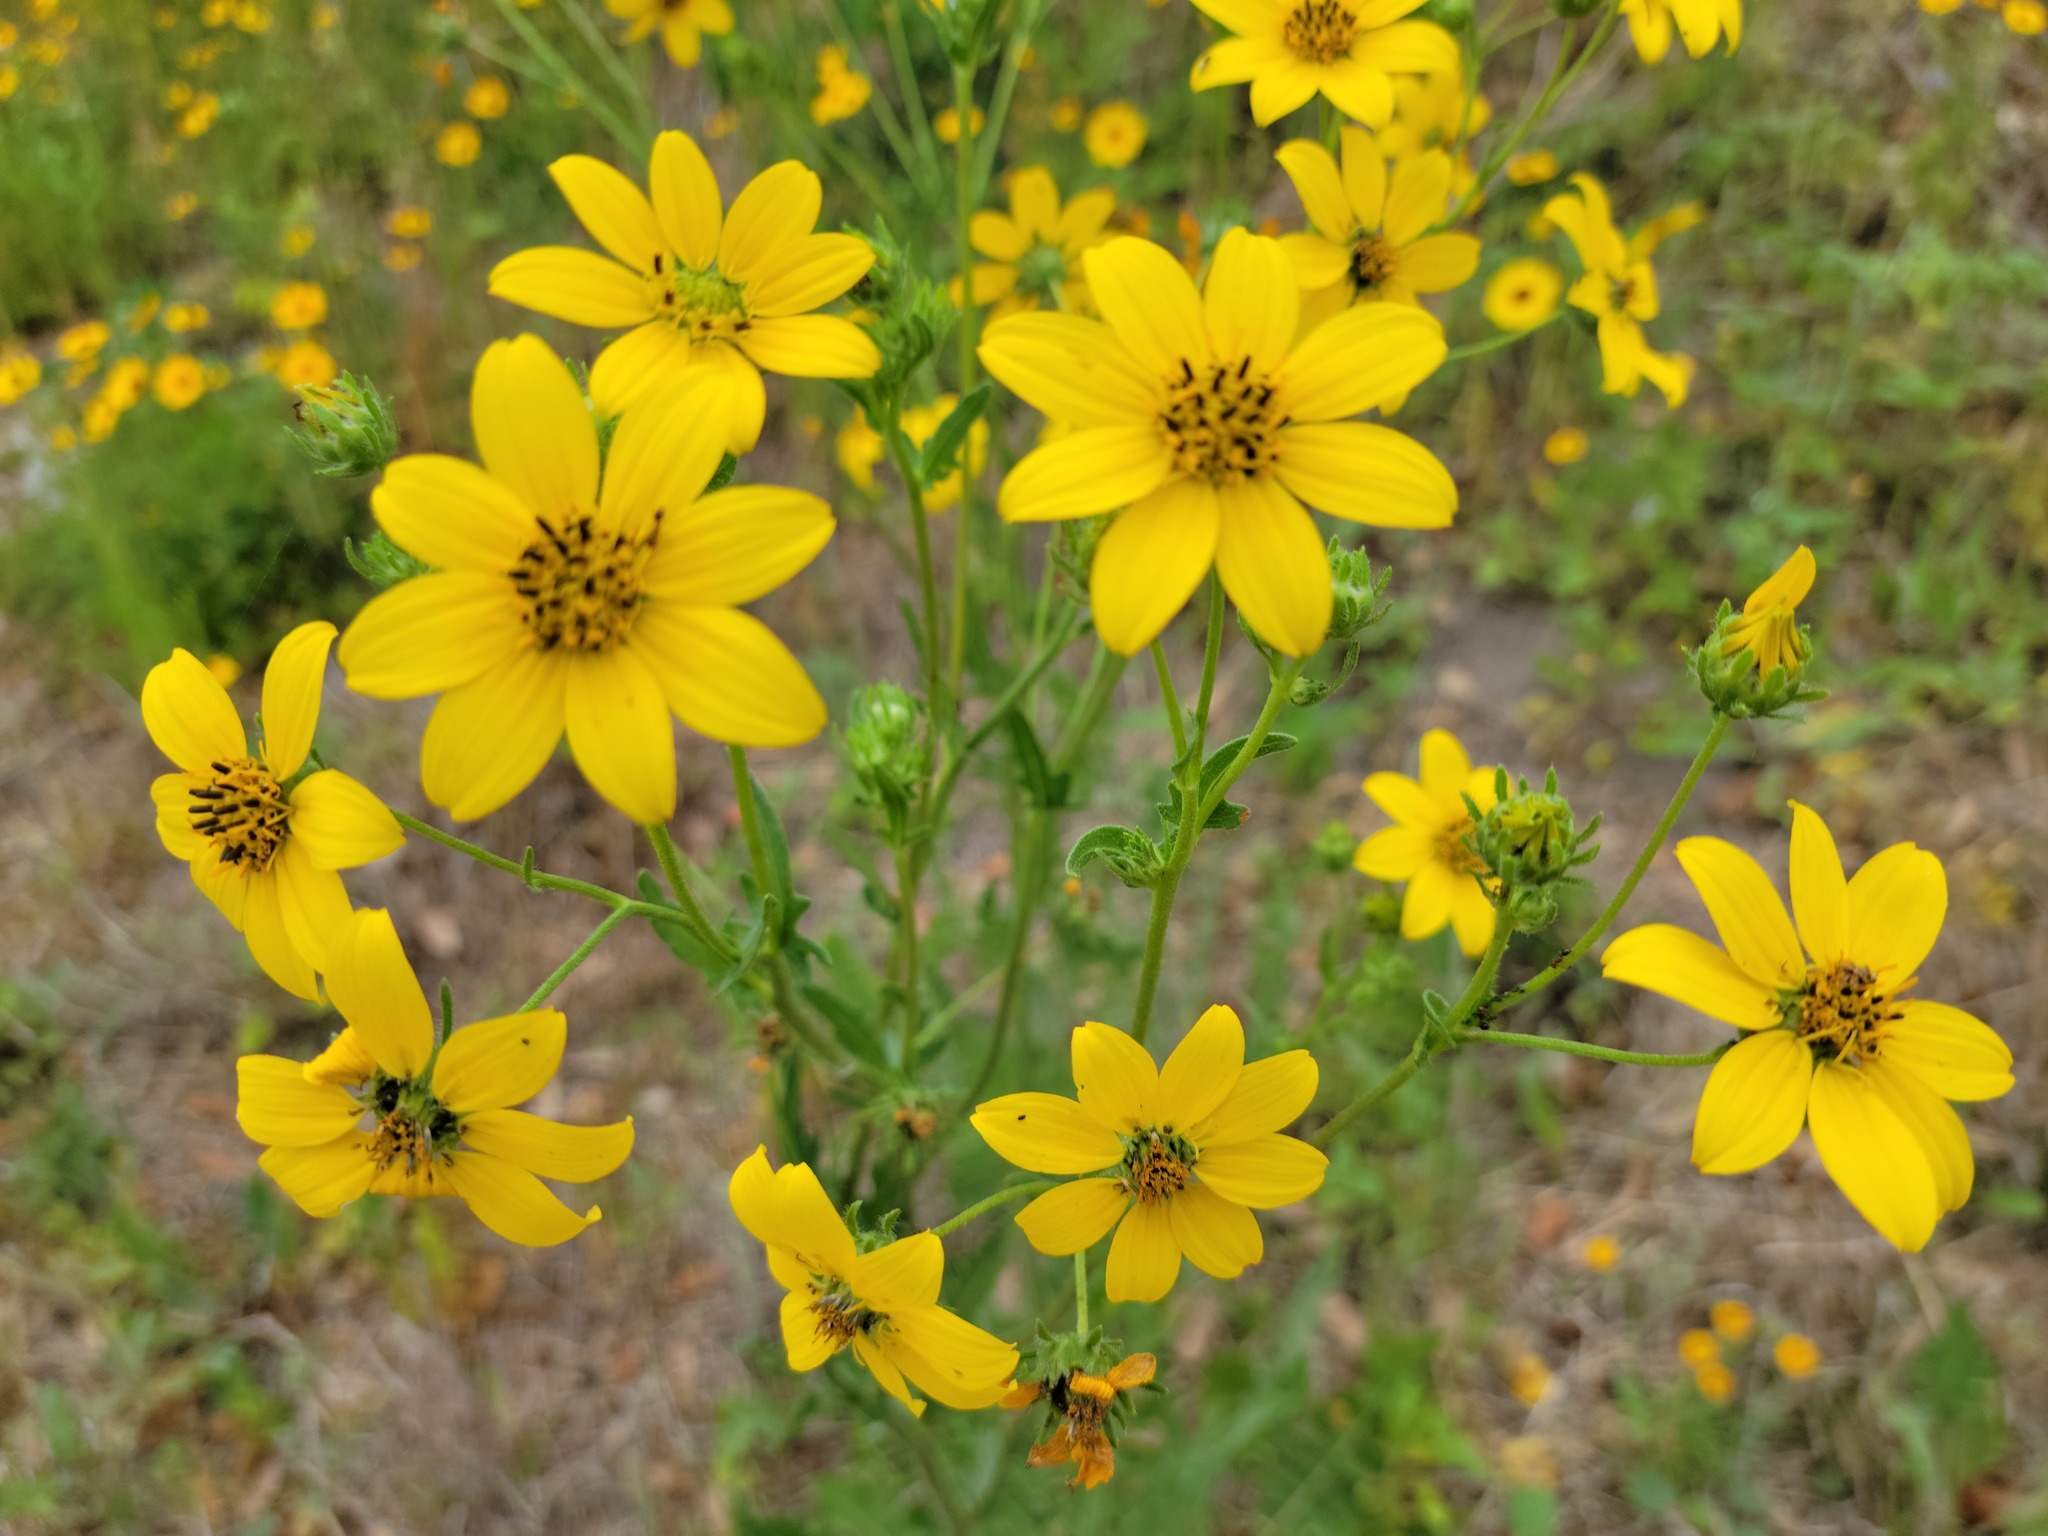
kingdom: Plantae
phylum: Tracheophyta
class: Magnoliopsida
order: Asterales
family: Asteraceae
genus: Engelmannia
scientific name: Engelmannia peristenia
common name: Engelmann's daisy
